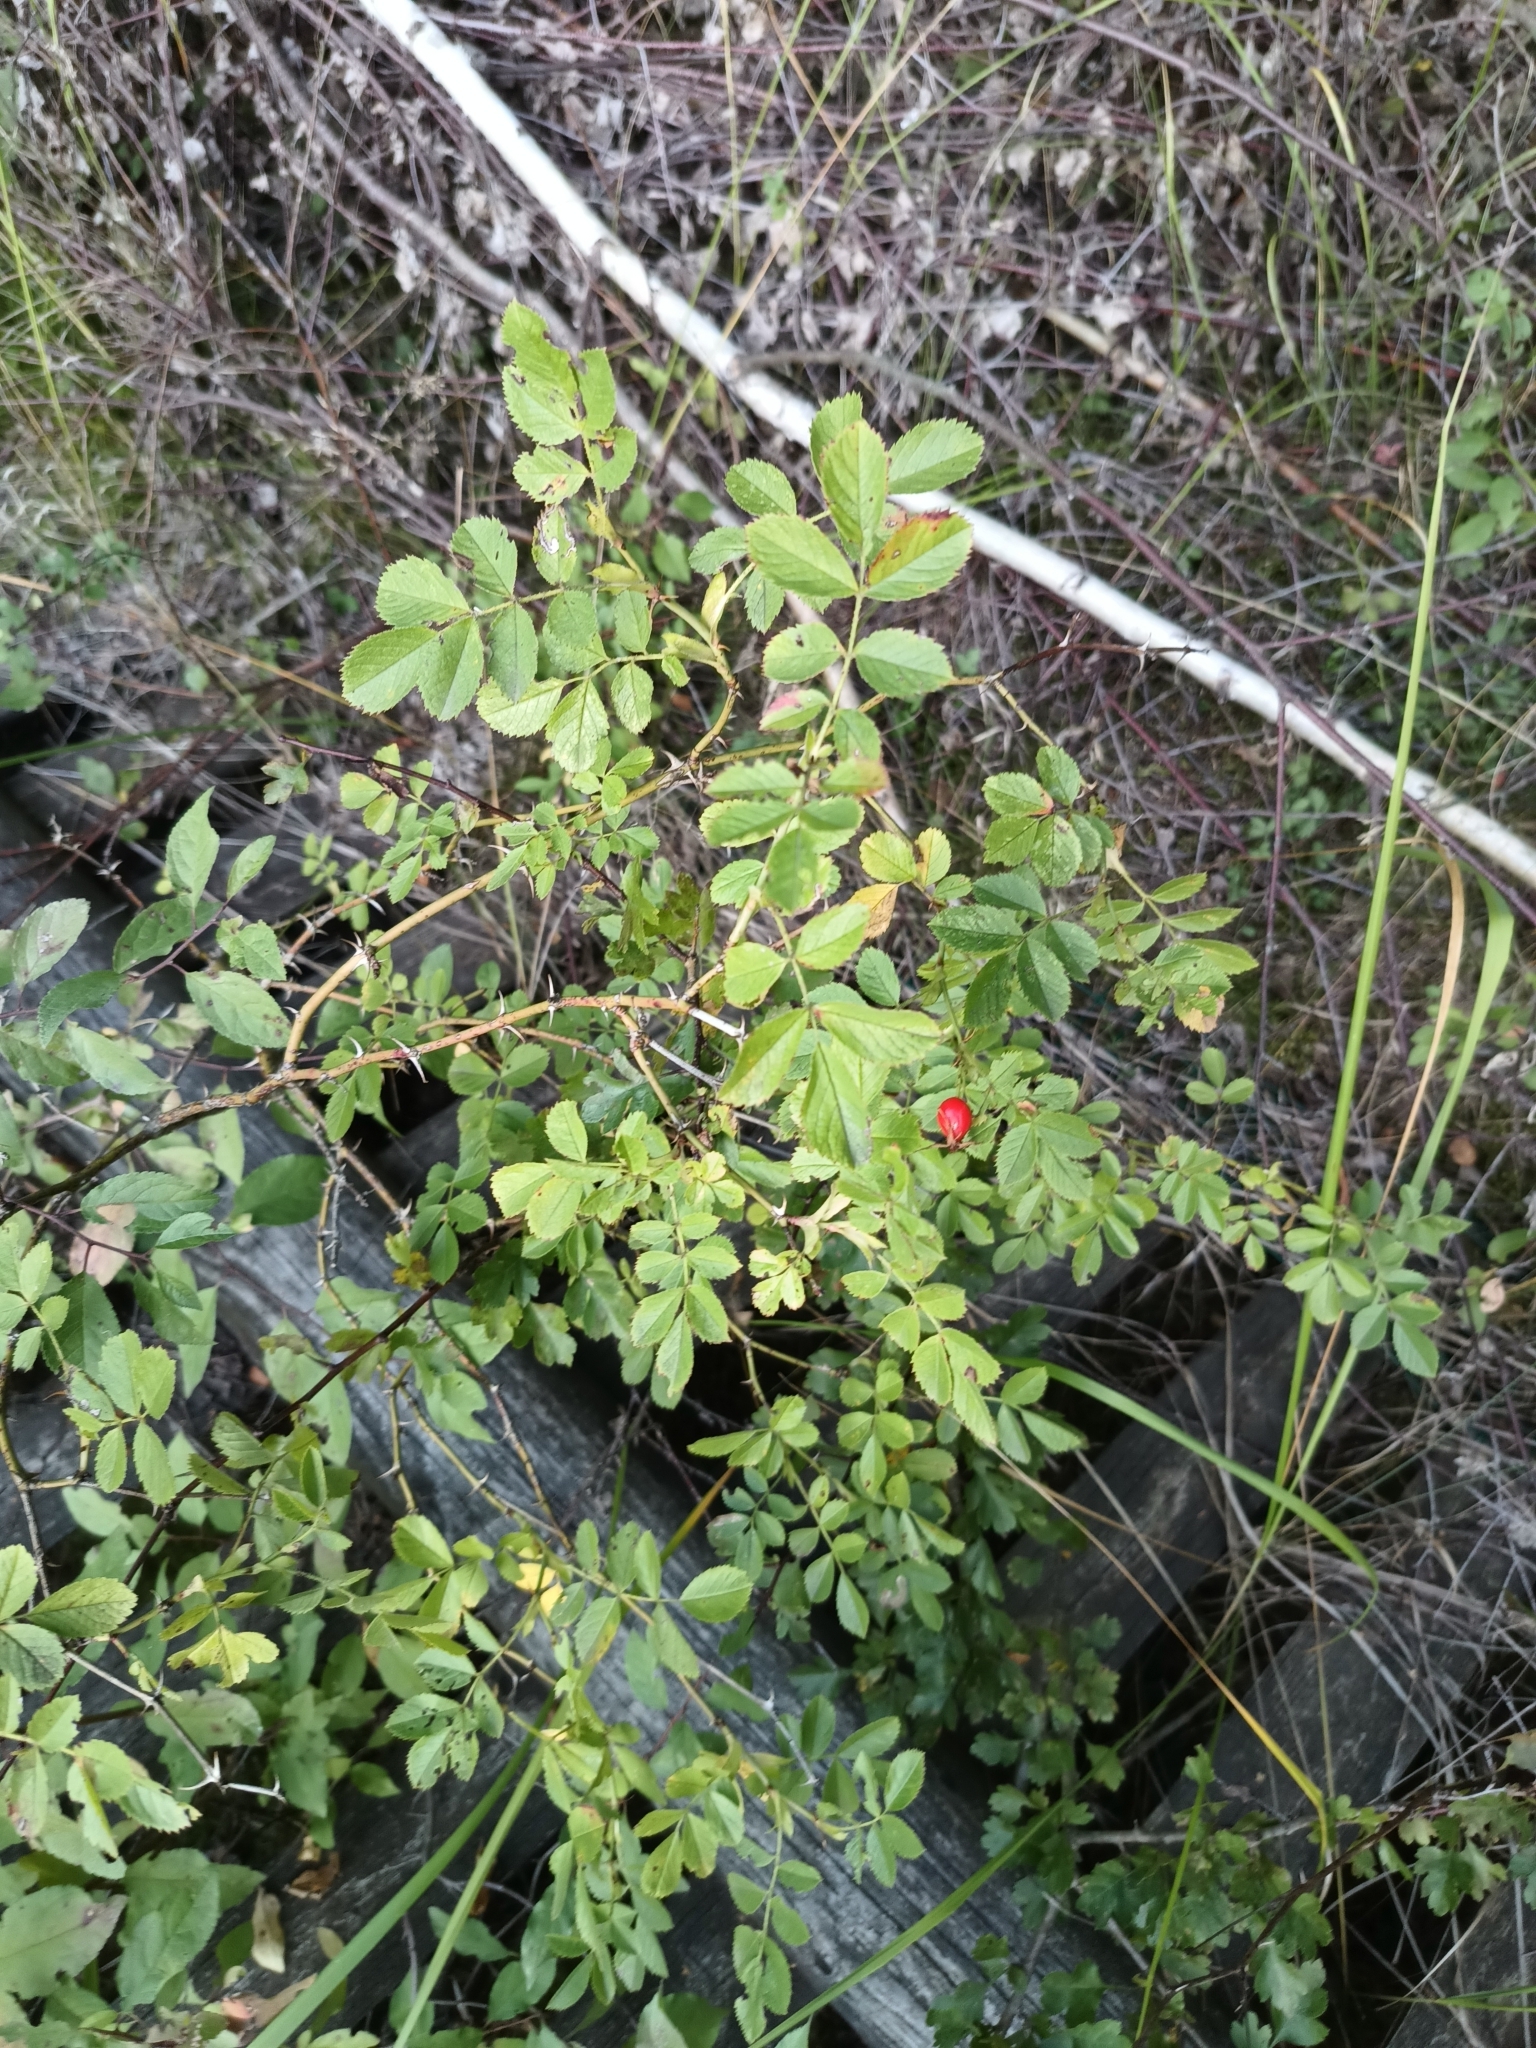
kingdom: Plantae
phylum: Tracheophyta
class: Magnoliopsida
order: Rosales
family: Rosaceae
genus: Rosa
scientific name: Rosa inodora
